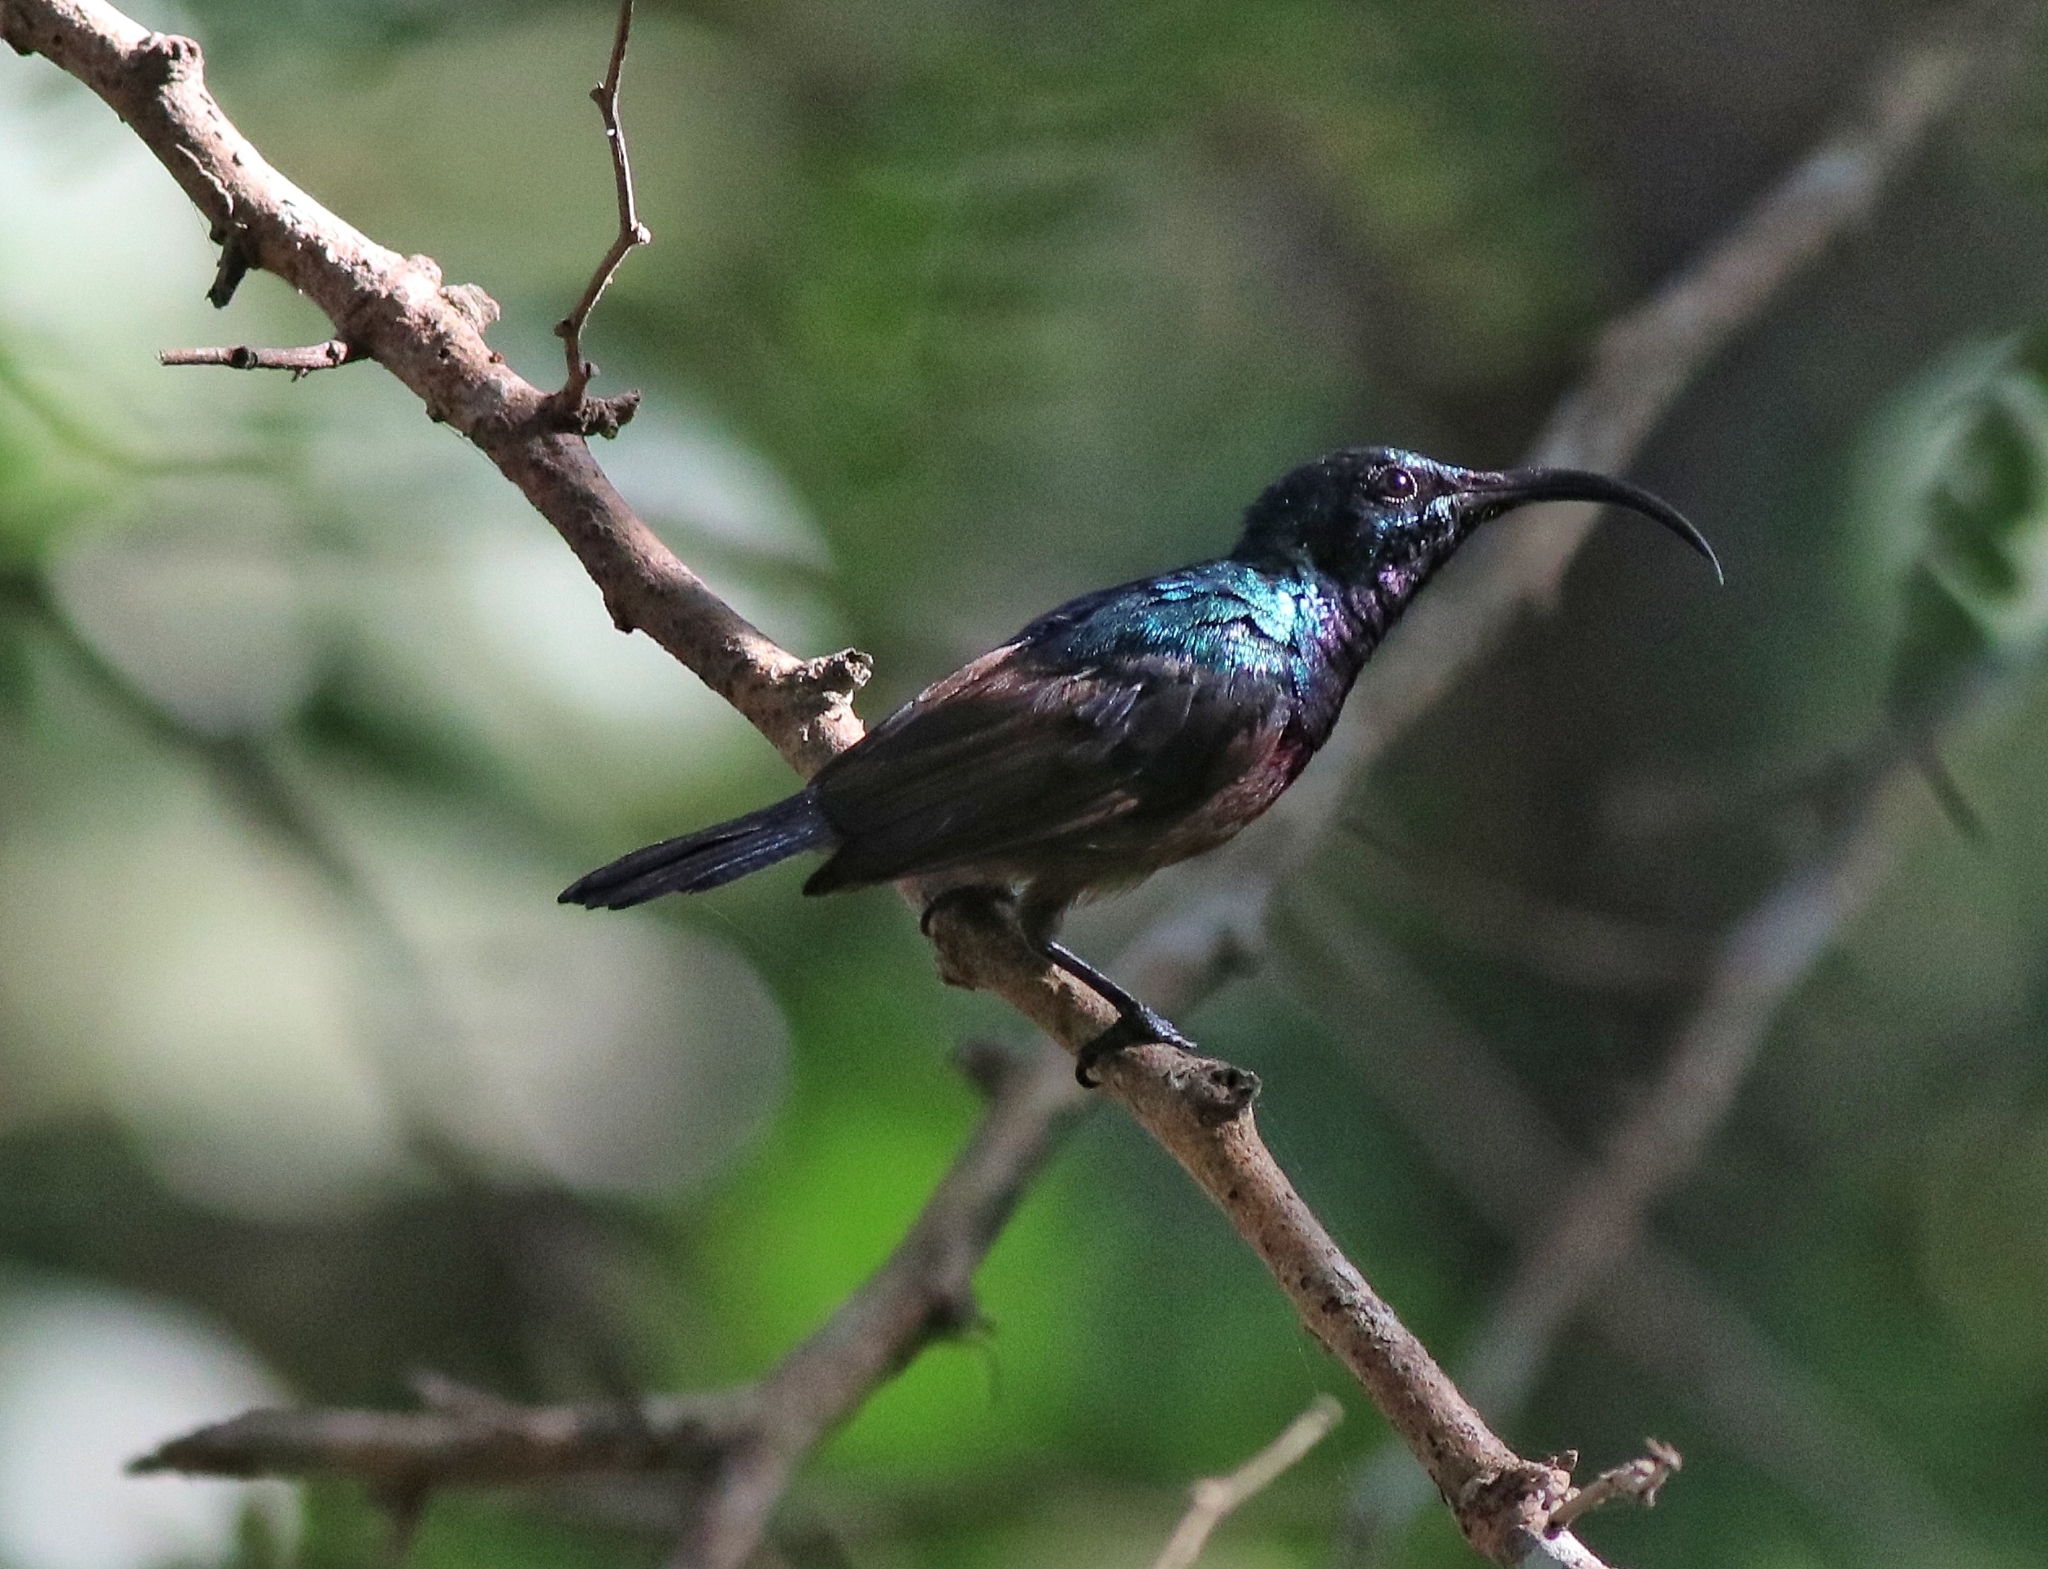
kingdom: Animalia
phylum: Chordata
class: Aves
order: Passeriformes
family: Nectariniidae
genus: Cinnyris
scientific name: Cinnyris lotenius
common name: Loten's sunbird
